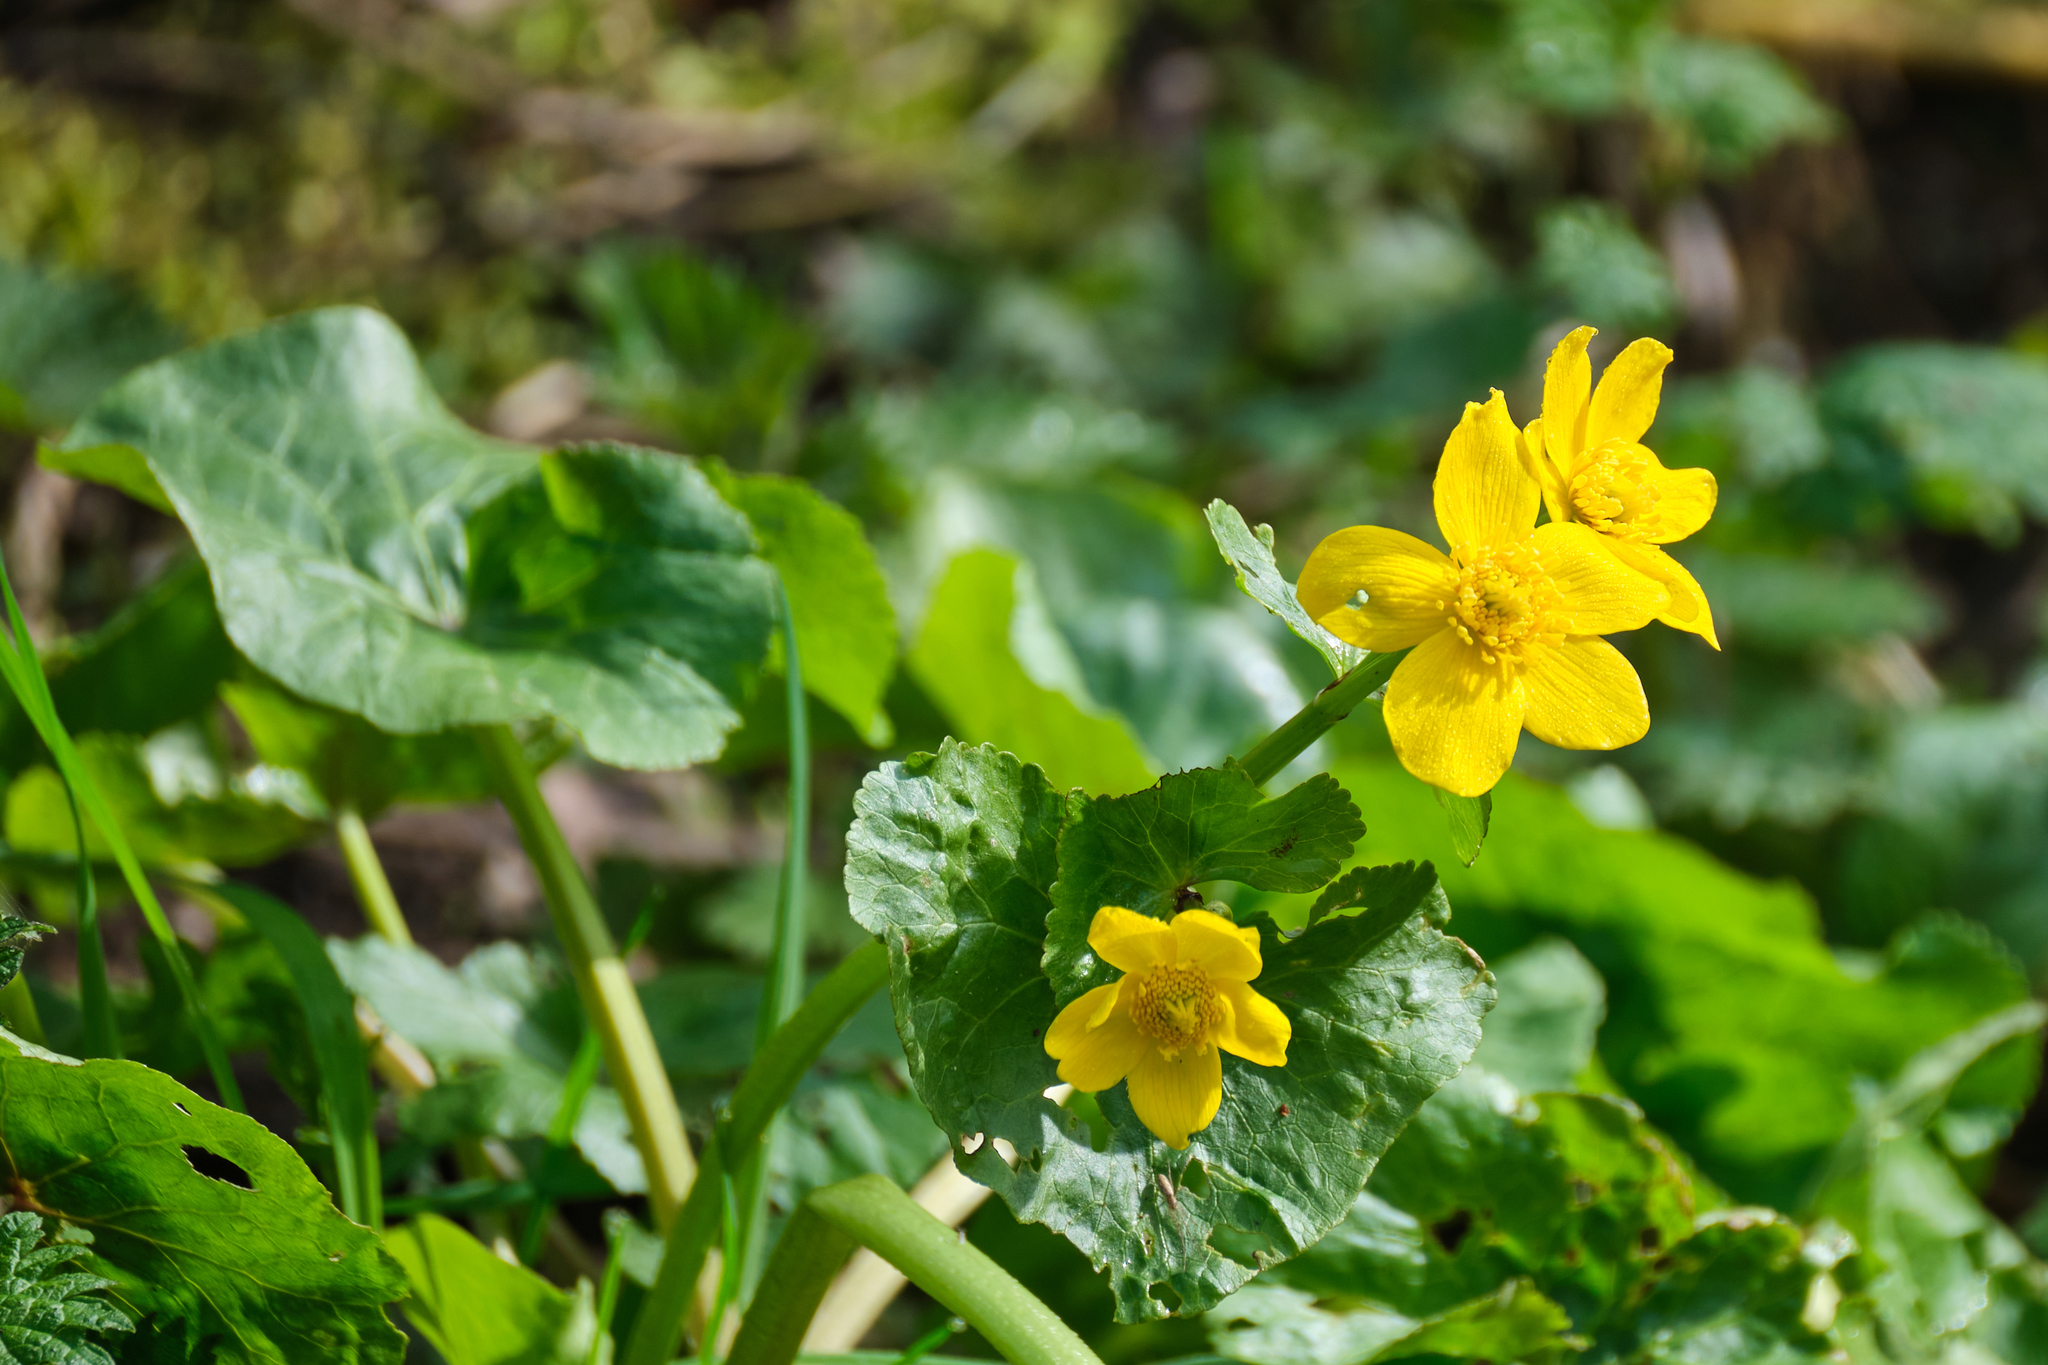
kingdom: Plantae
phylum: Tracheophyta
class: Magnoliopsida
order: Ranunculales
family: Ranunculaceae
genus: Caltha
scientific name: Caltha palustris
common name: Marsh marigold
